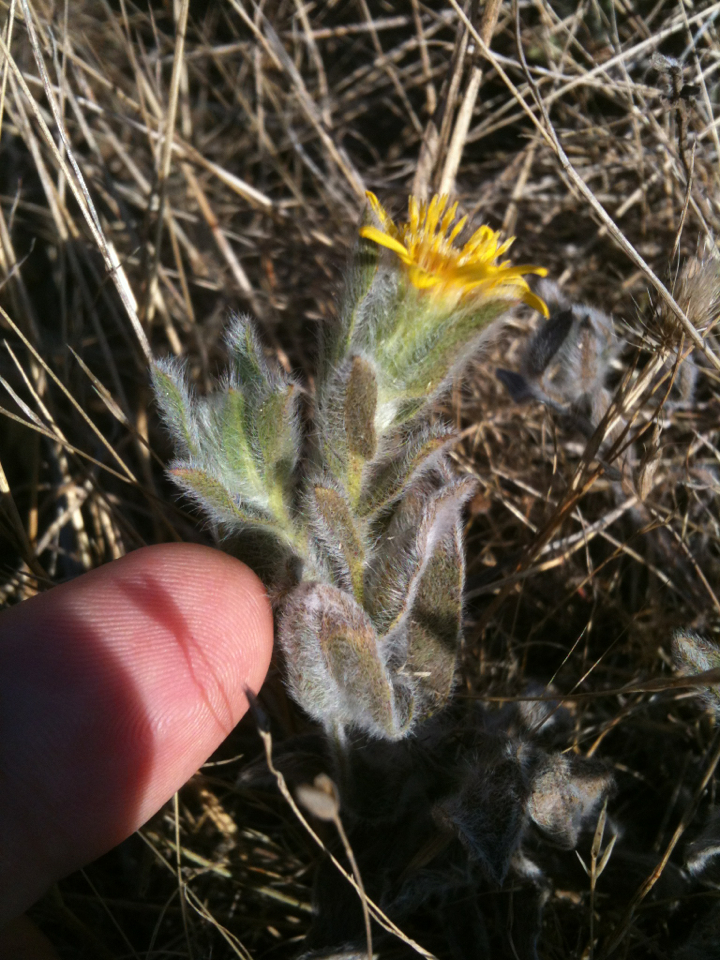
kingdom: Plantae
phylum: Tracheophyta
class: Magnoliopsida
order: Asterales
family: Asteraceae
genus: Heterotheca
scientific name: Heterotheca sessiliflora
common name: Sessile-flower golden-aster
